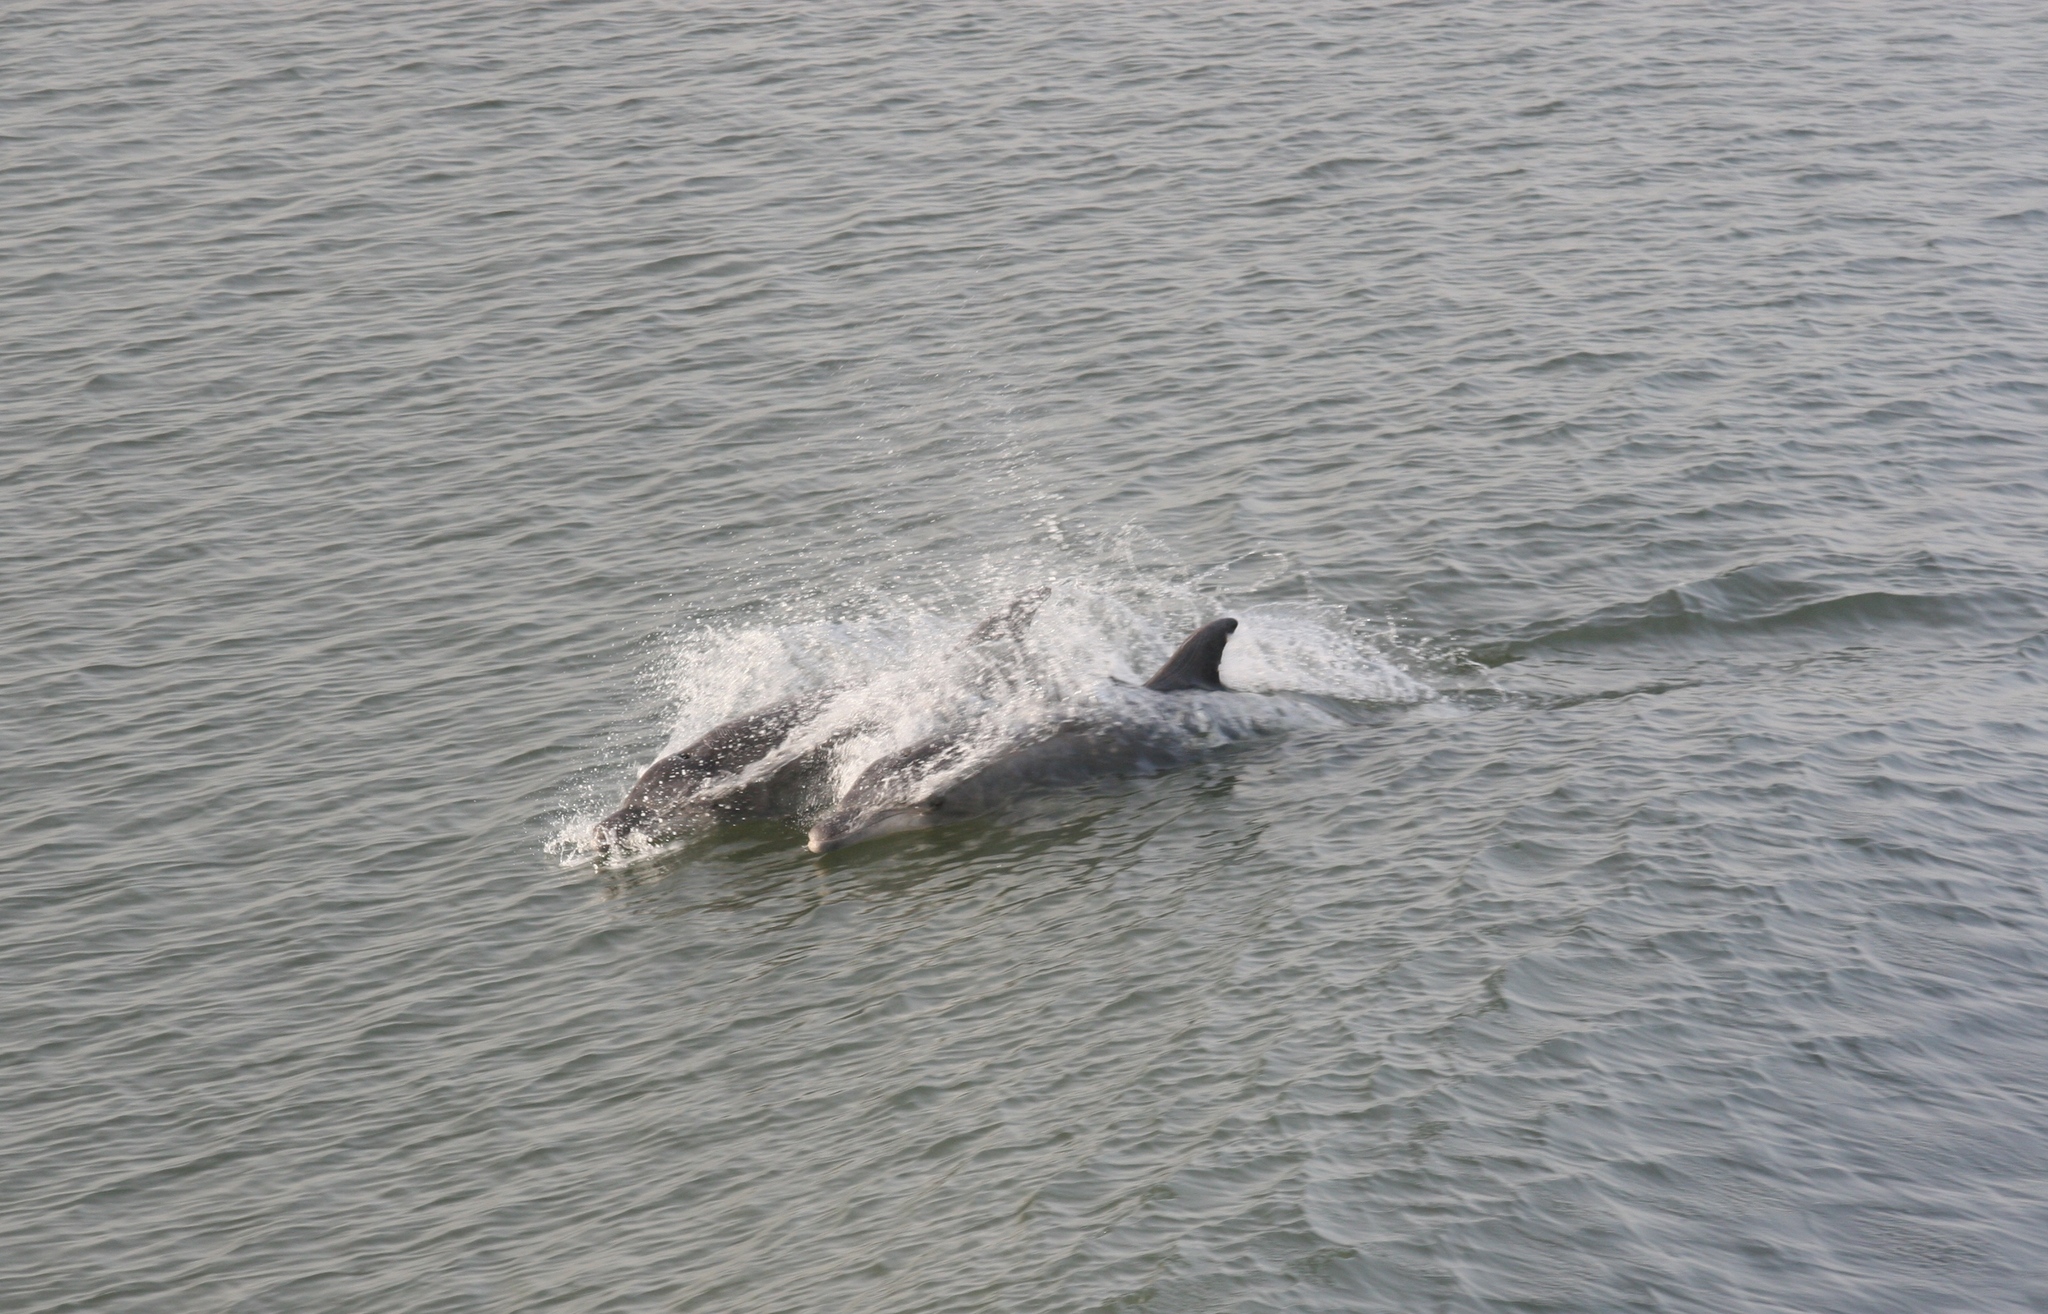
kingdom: Animalia
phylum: Chordata
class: Mammalia
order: Cetacea
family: Delphinidae
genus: Tursiops
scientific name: Tursiops truncatus
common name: Bottlenose dolphin
